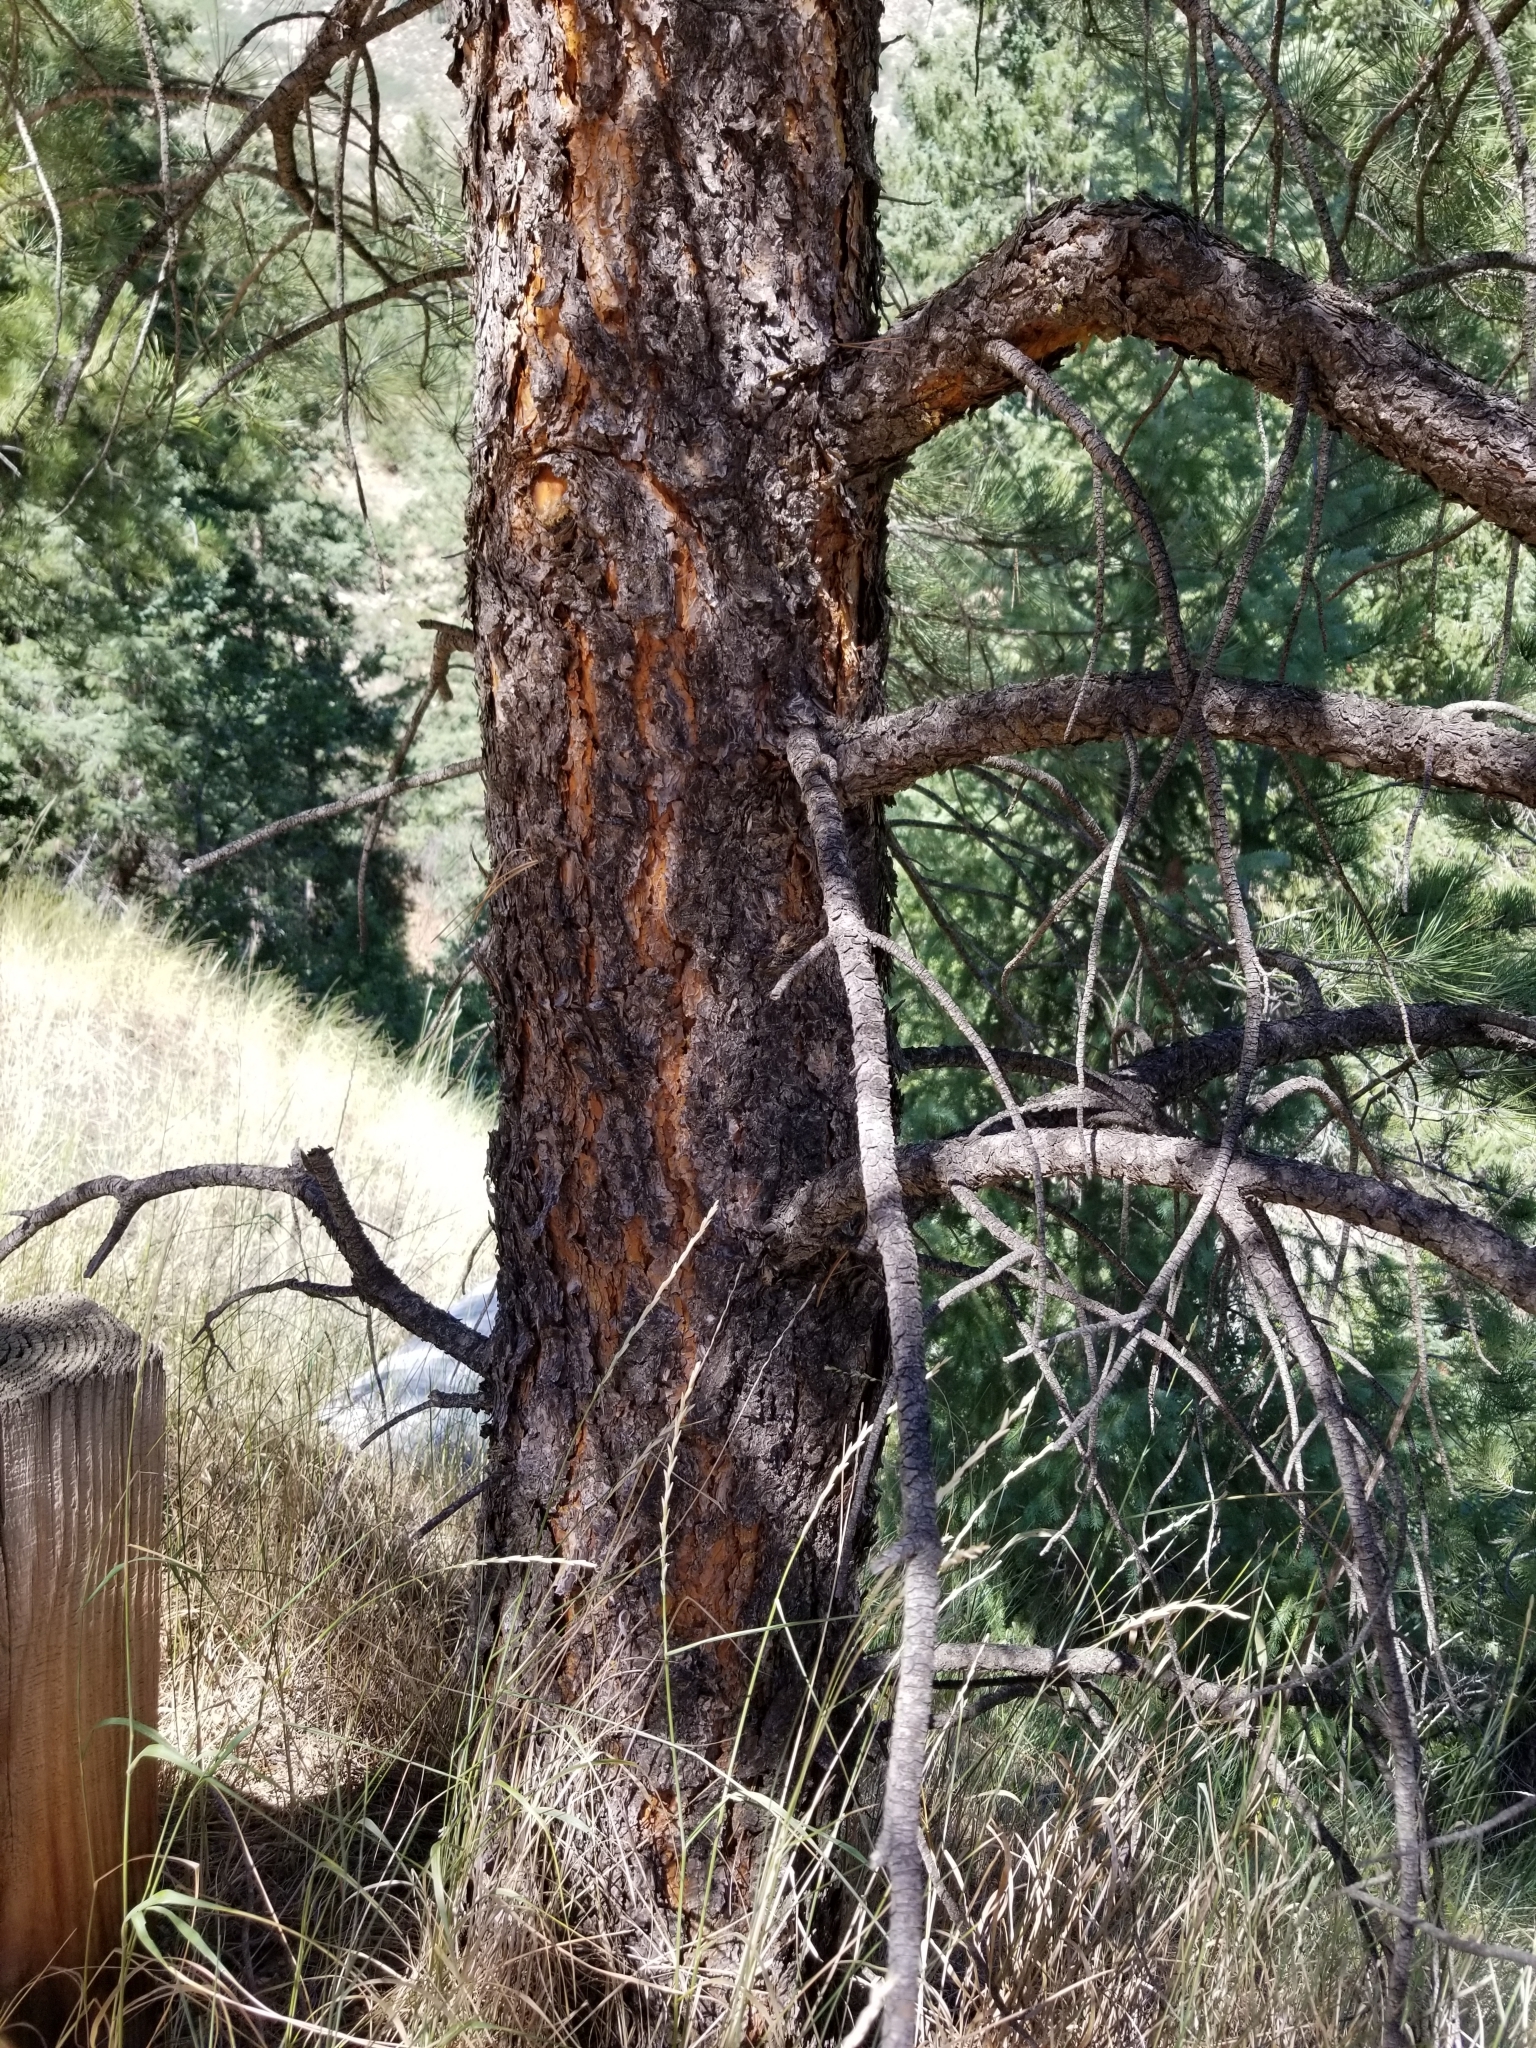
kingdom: Plantae
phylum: Tracheophyta
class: Pinopsida
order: Pinales
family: Pinaceae
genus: Pinus
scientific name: Pinus ponderosa
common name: Western yellow-pine
